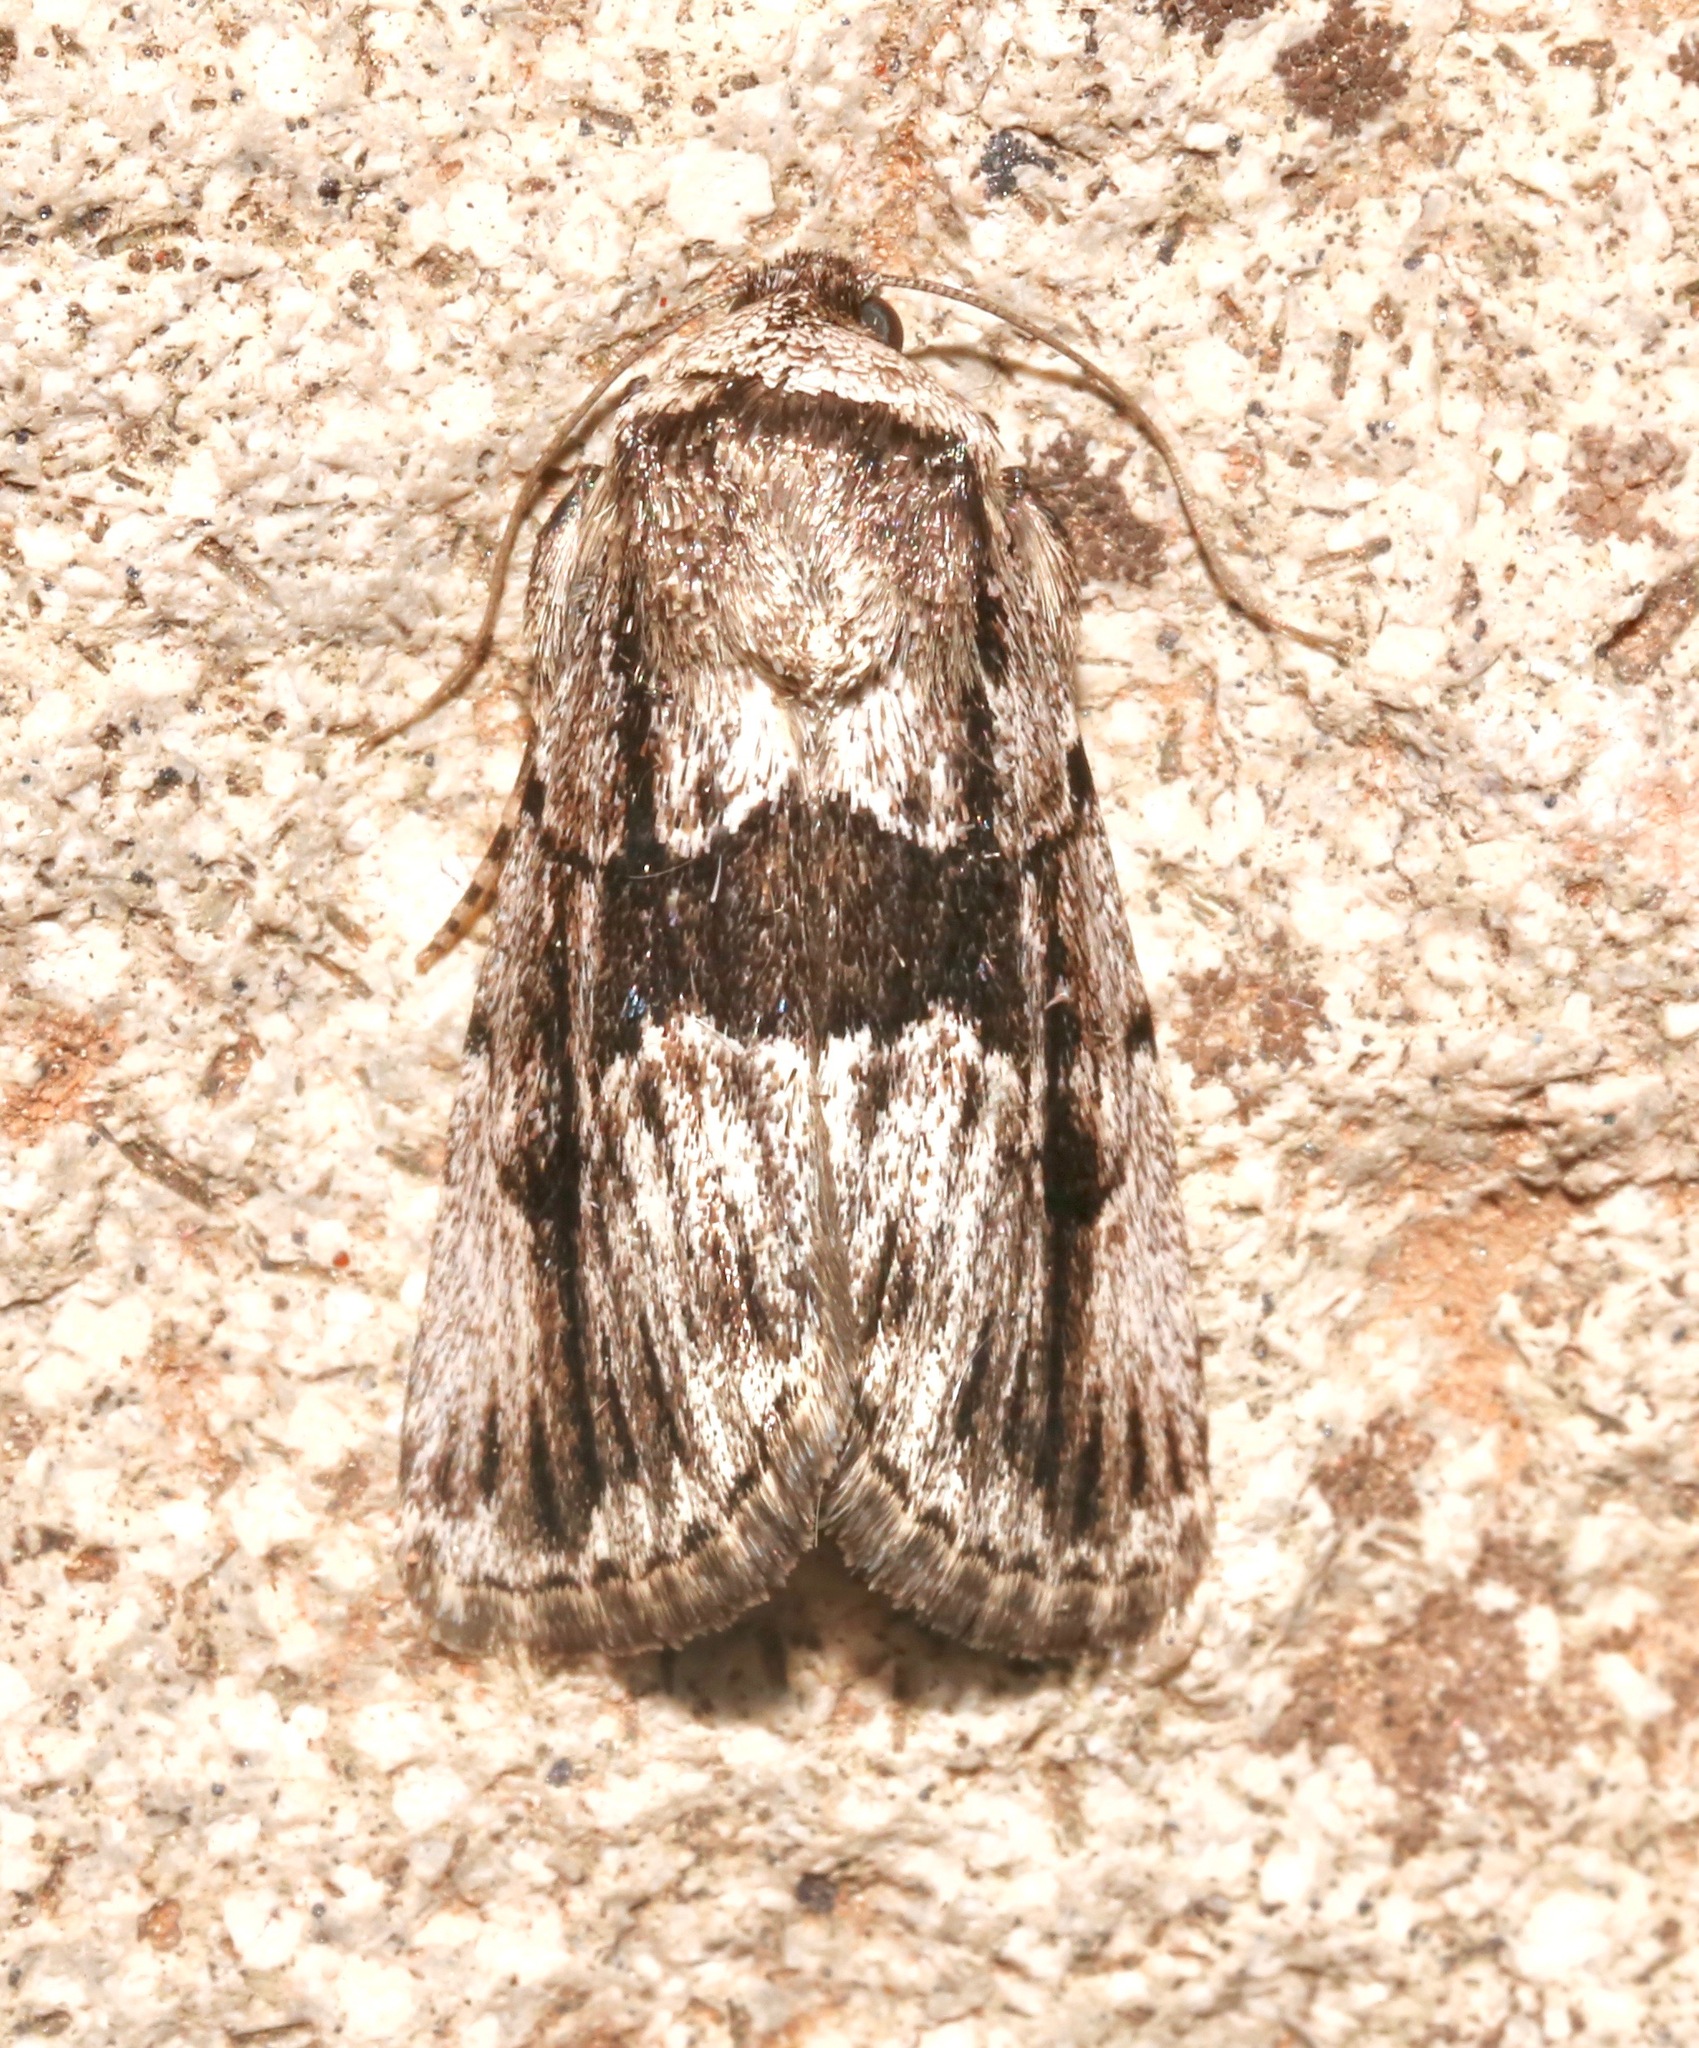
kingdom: Animalia
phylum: Arthropoda
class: Insecta
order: Lepidoptera
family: Noctuidae
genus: Sympistis
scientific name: Sympistis fifia
